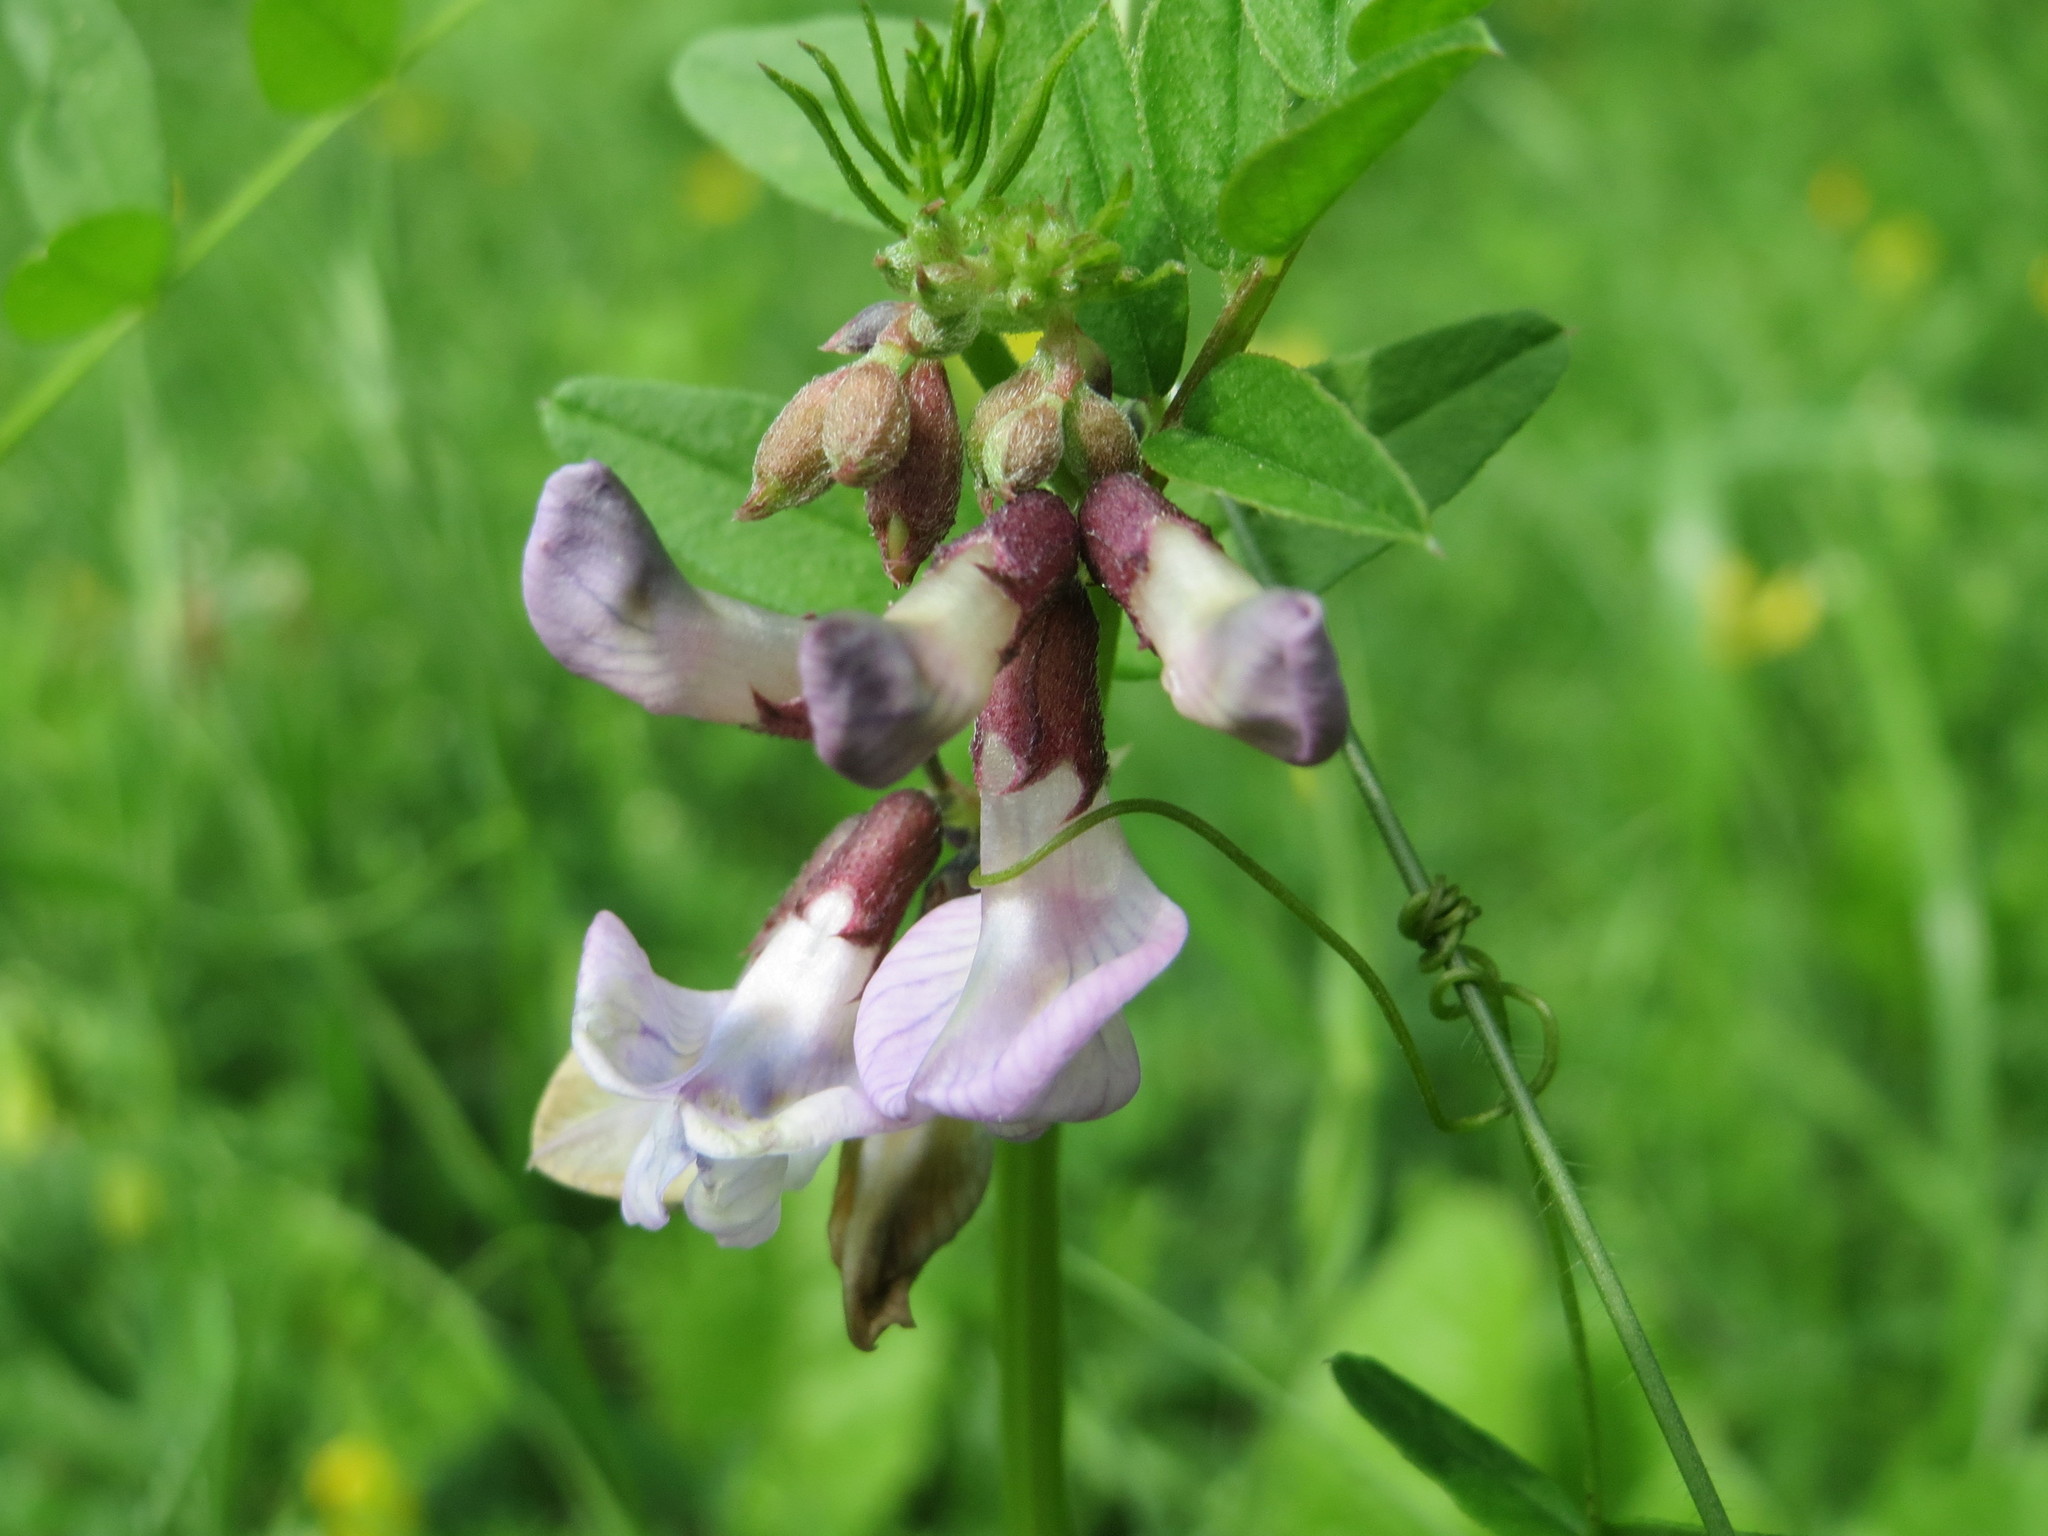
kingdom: Plantae
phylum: Tracheophyta
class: Magnoliopsida
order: Fabales
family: Fabaceae
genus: Vicia
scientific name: Vicia sepium
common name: Bush vetch
